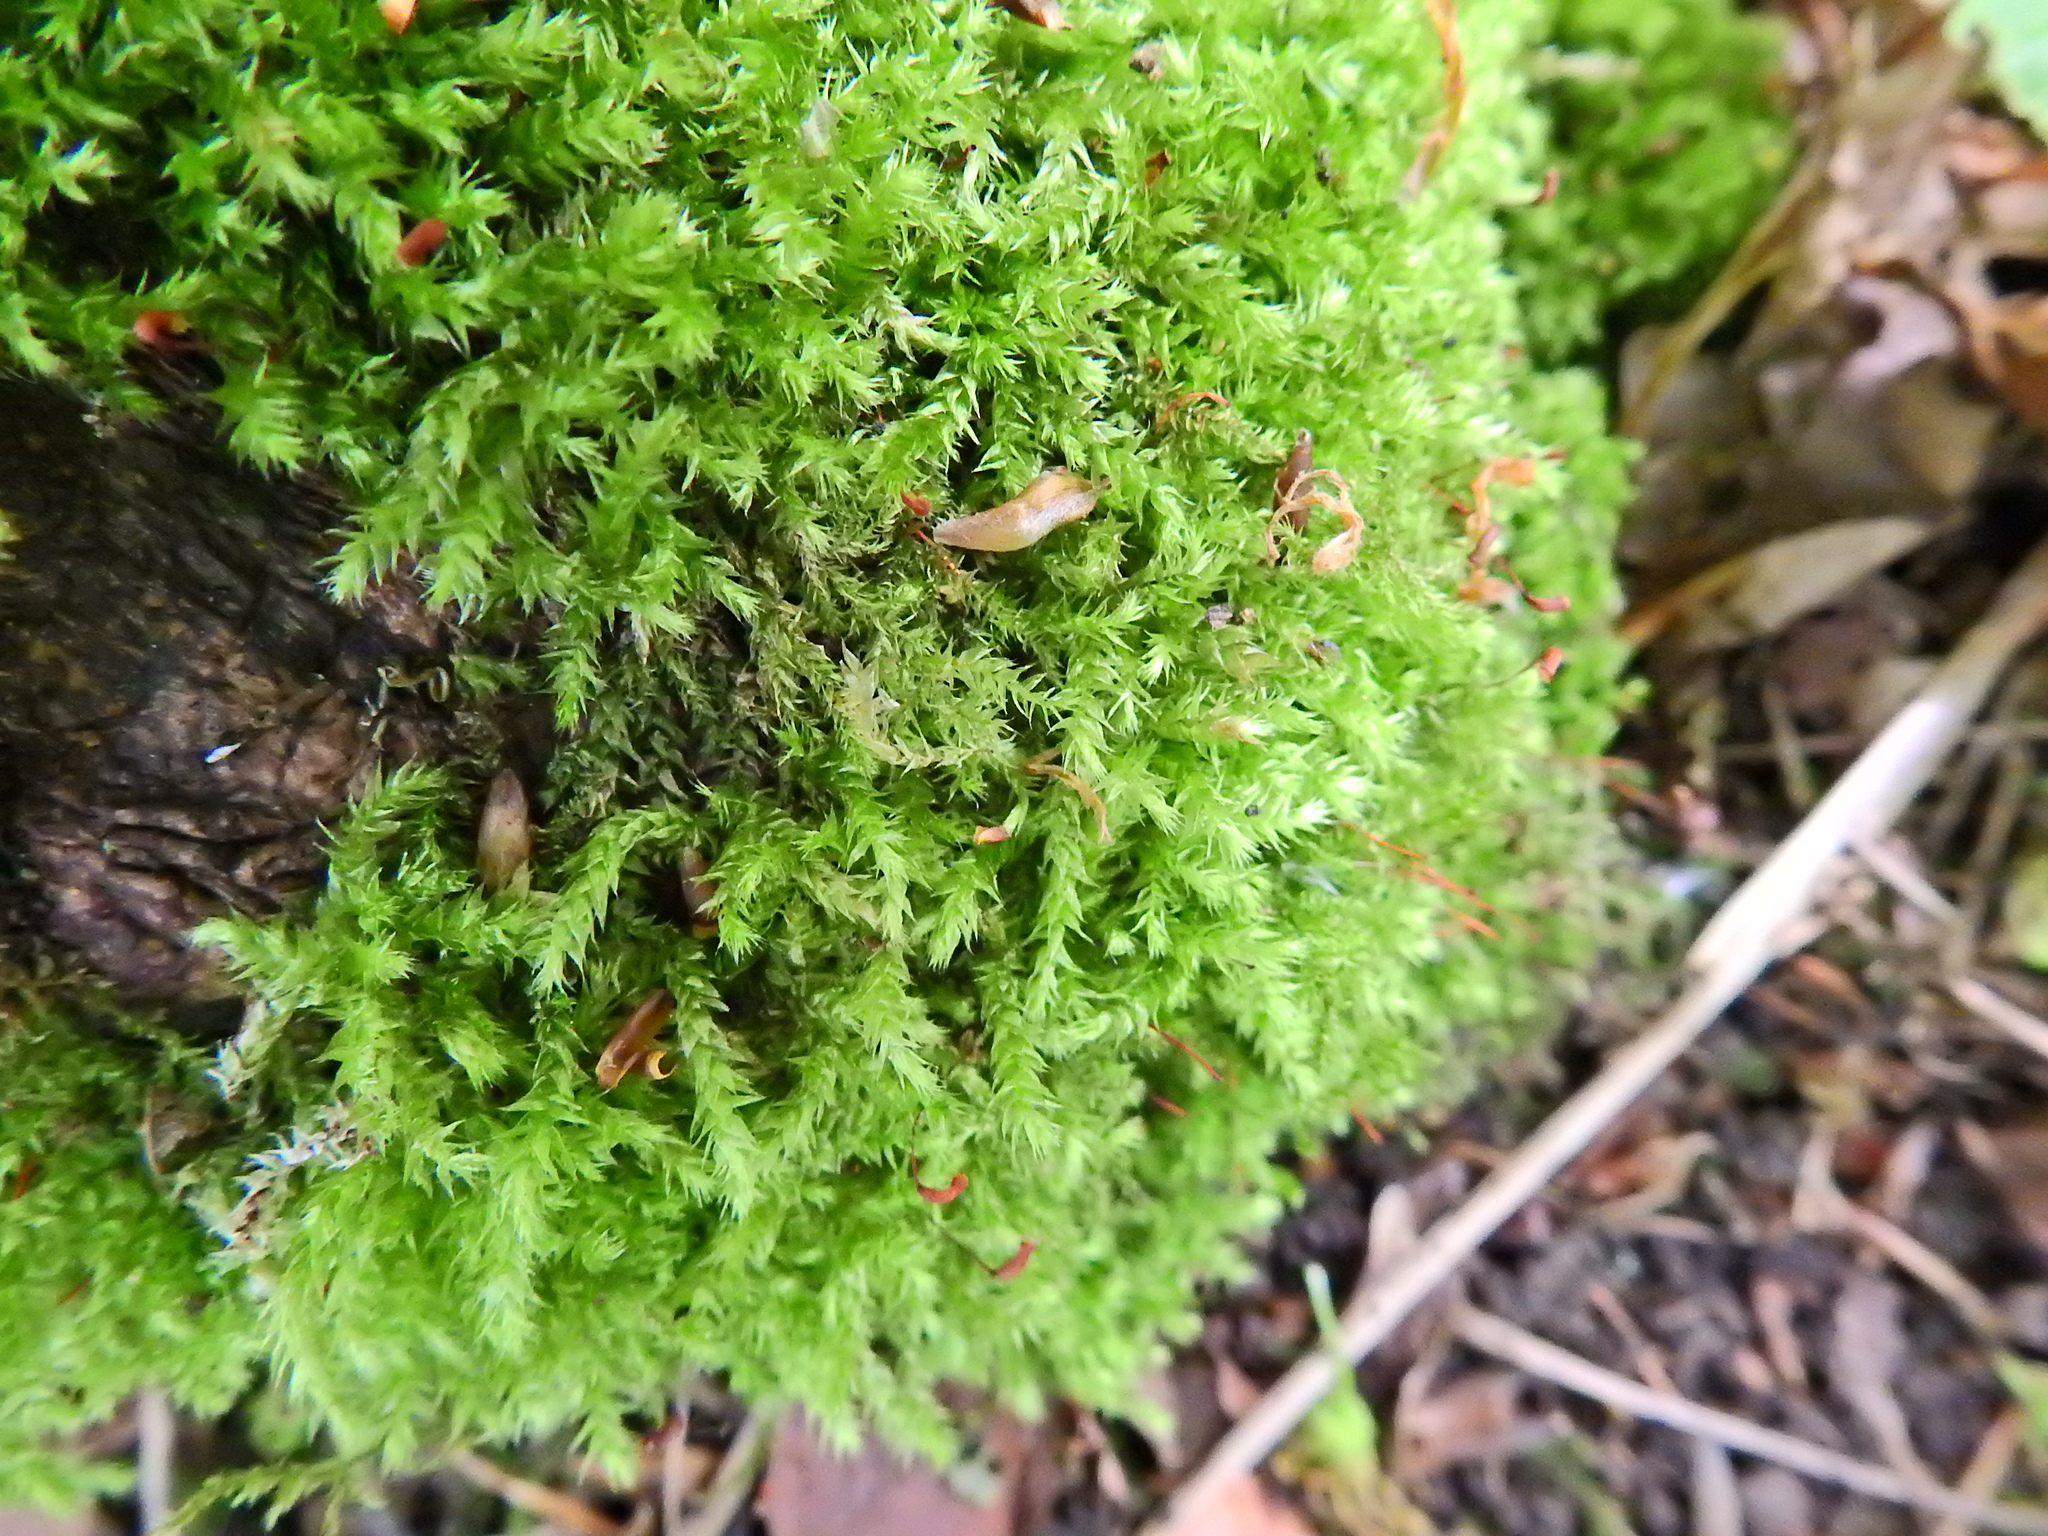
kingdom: Plantae
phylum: Bryophyta
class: Bryopsida
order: Hypnales
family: Brachytheciaceae
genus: Brachythecium
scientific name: Brachythecium rutabulum
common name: Rough-stalked feather-moss
